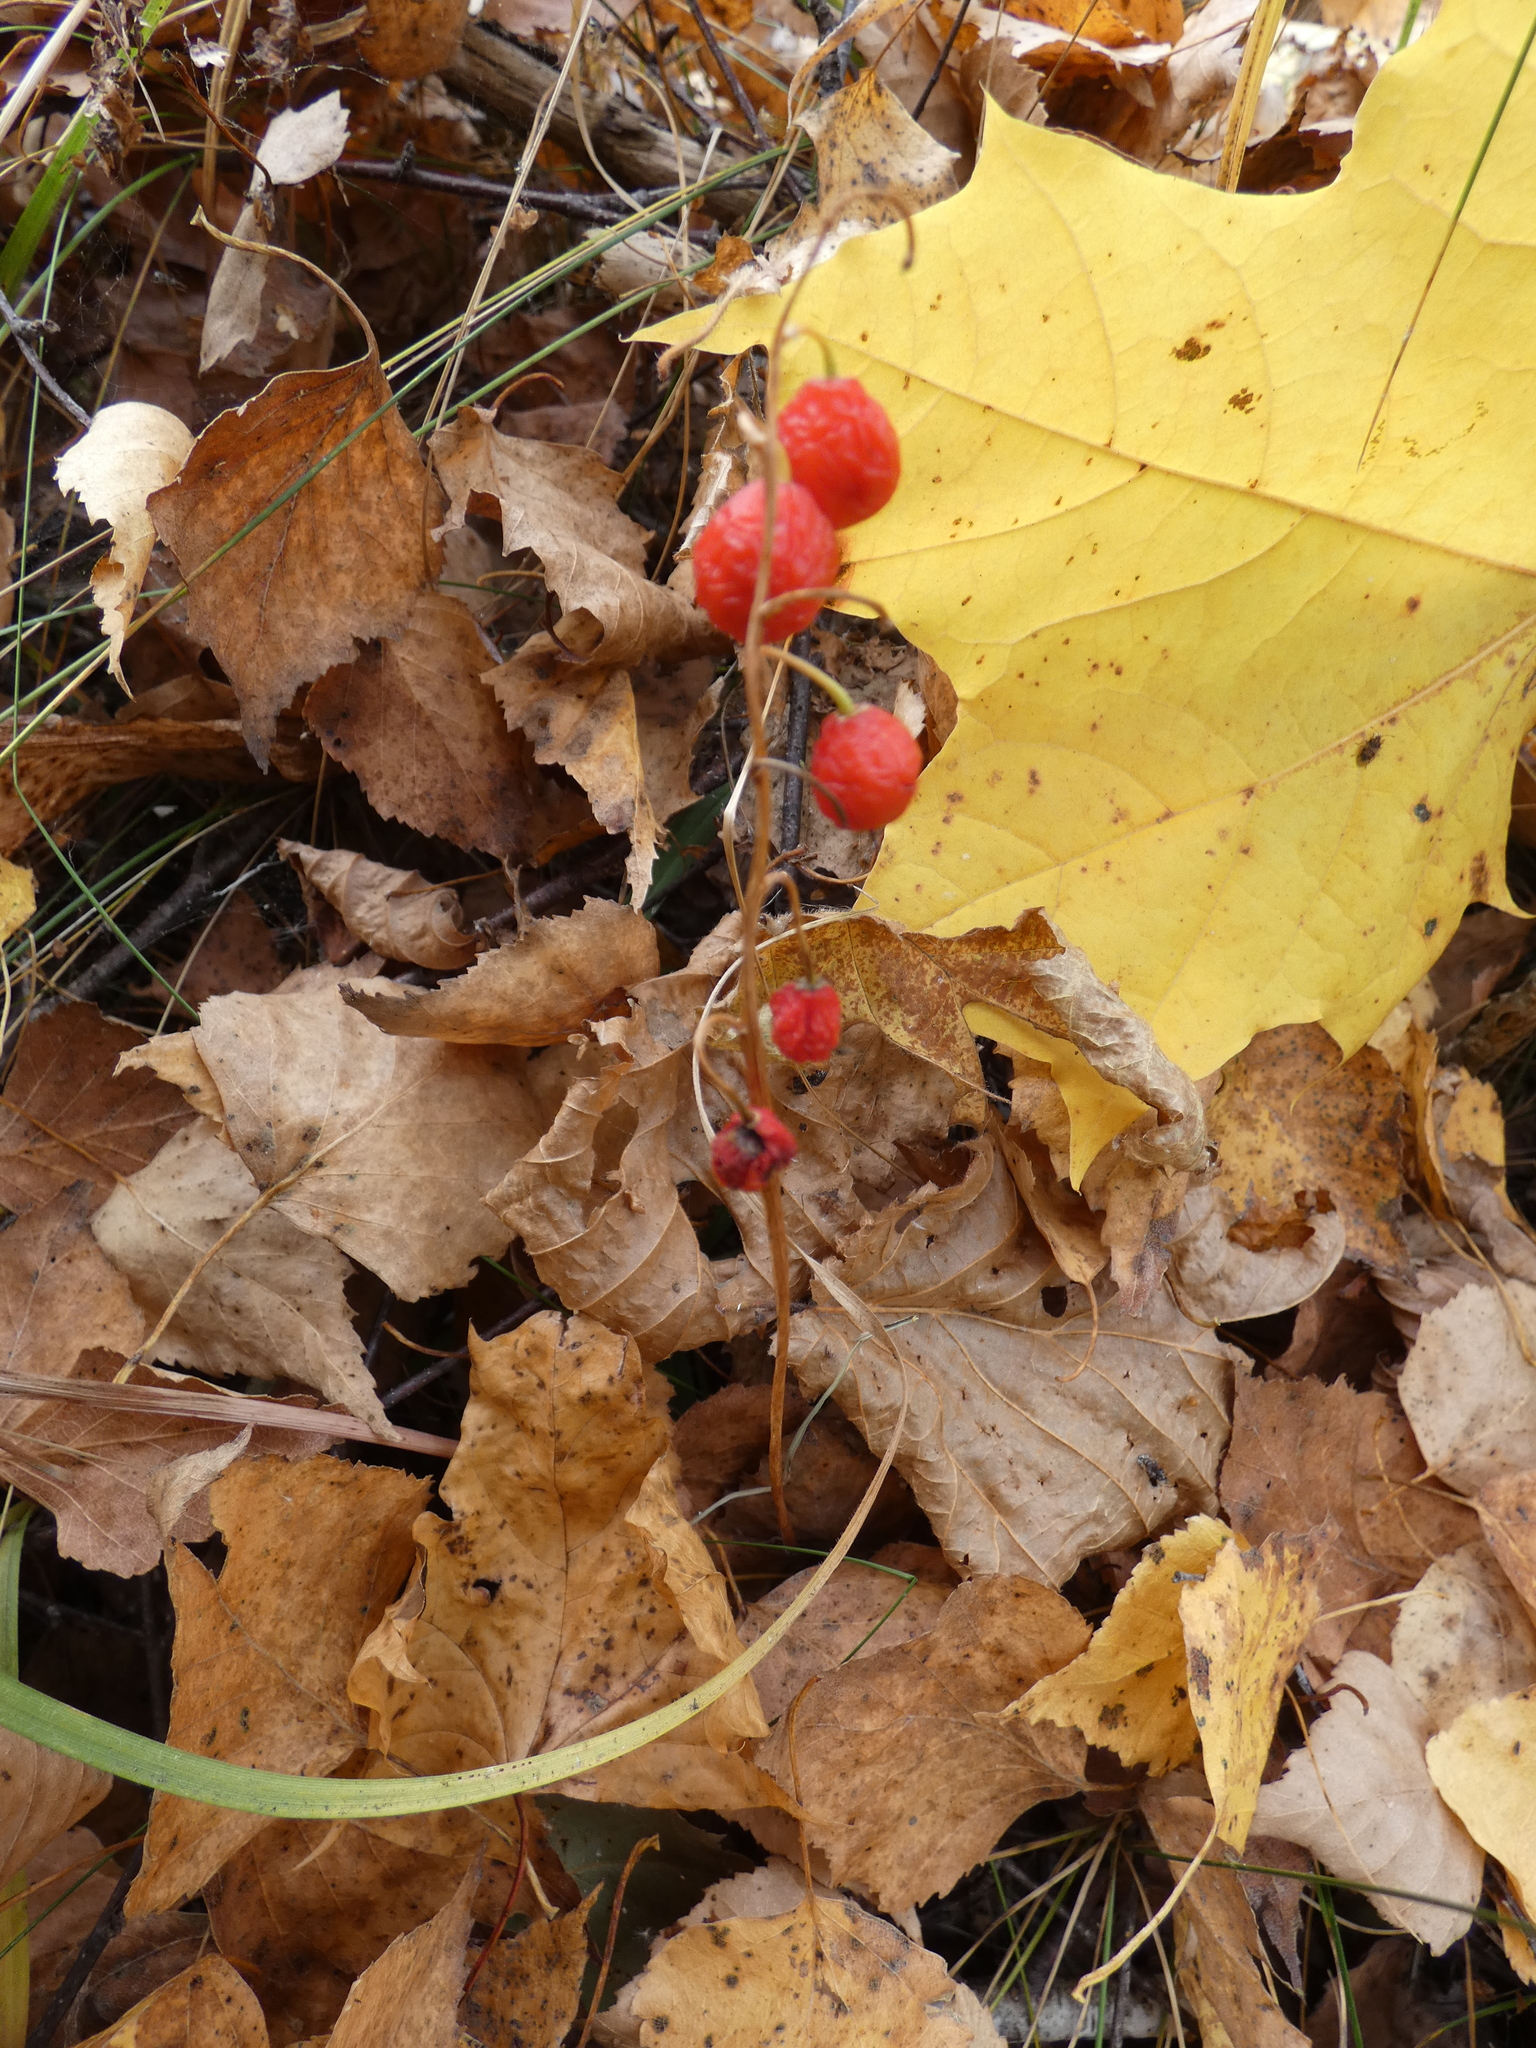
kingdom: Plantae
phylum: Tracheophyta
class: Liliopsida
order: Asparagales
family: Asparagaceae
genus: Convallaria
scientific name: Convallaria majalis
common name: Lily-of-the-valley
